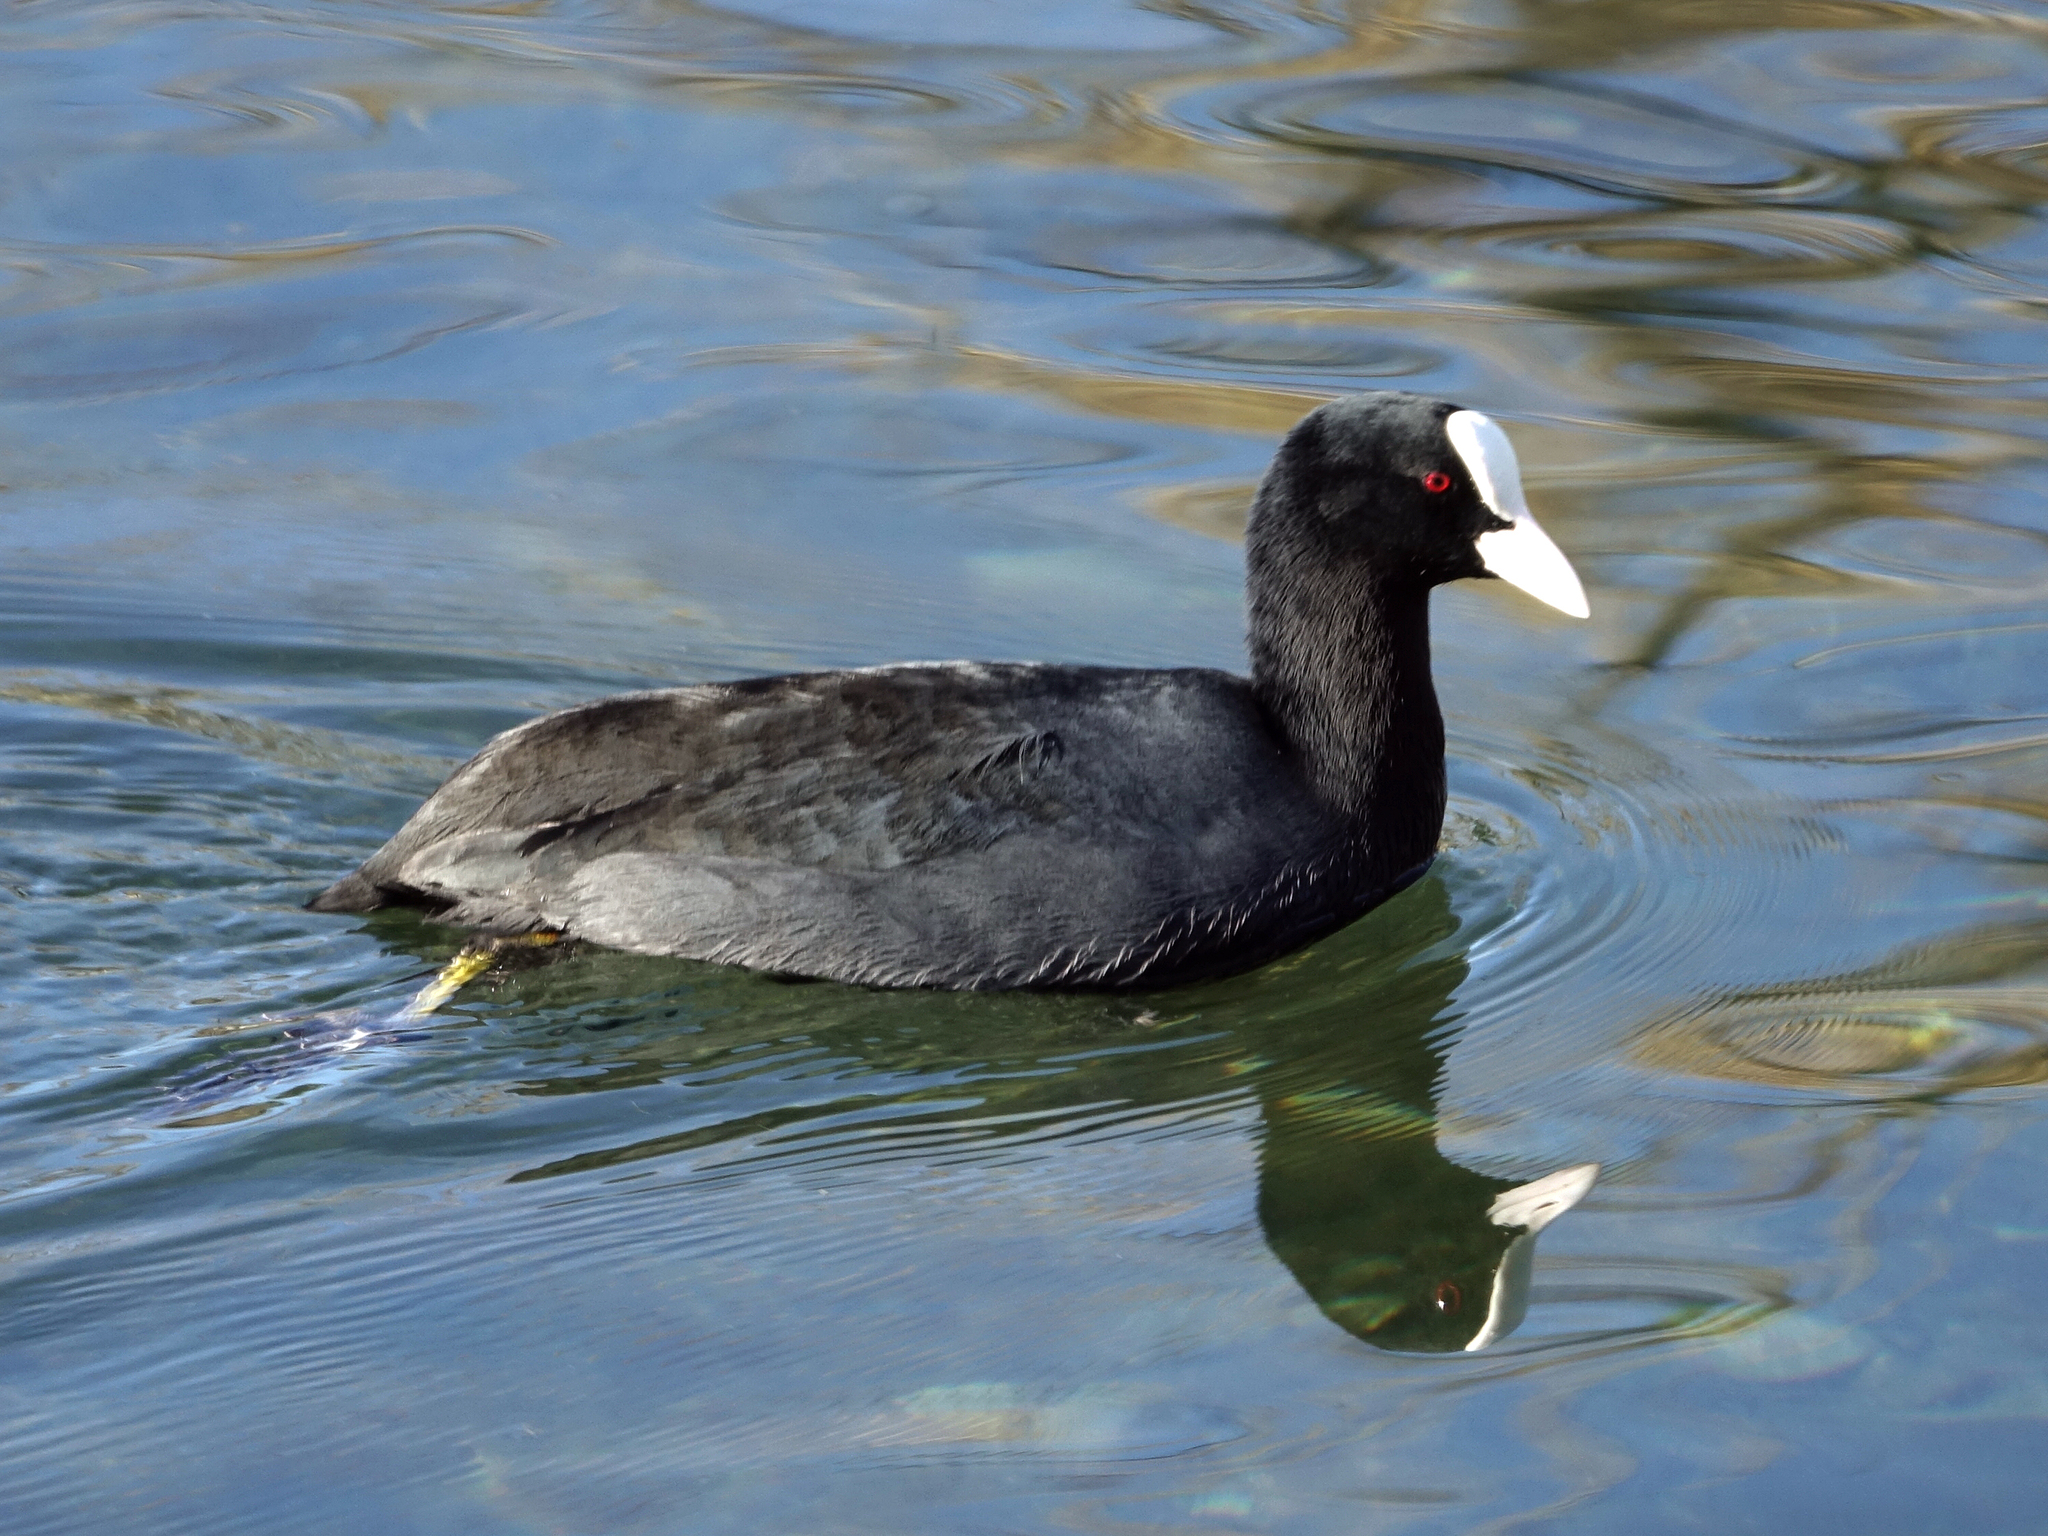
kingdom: Animalia
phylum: Chordata
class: Aves
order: Gruiformes
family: Rallidae
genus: Fulica
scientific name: Fulica atra
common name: Eurasian coot
